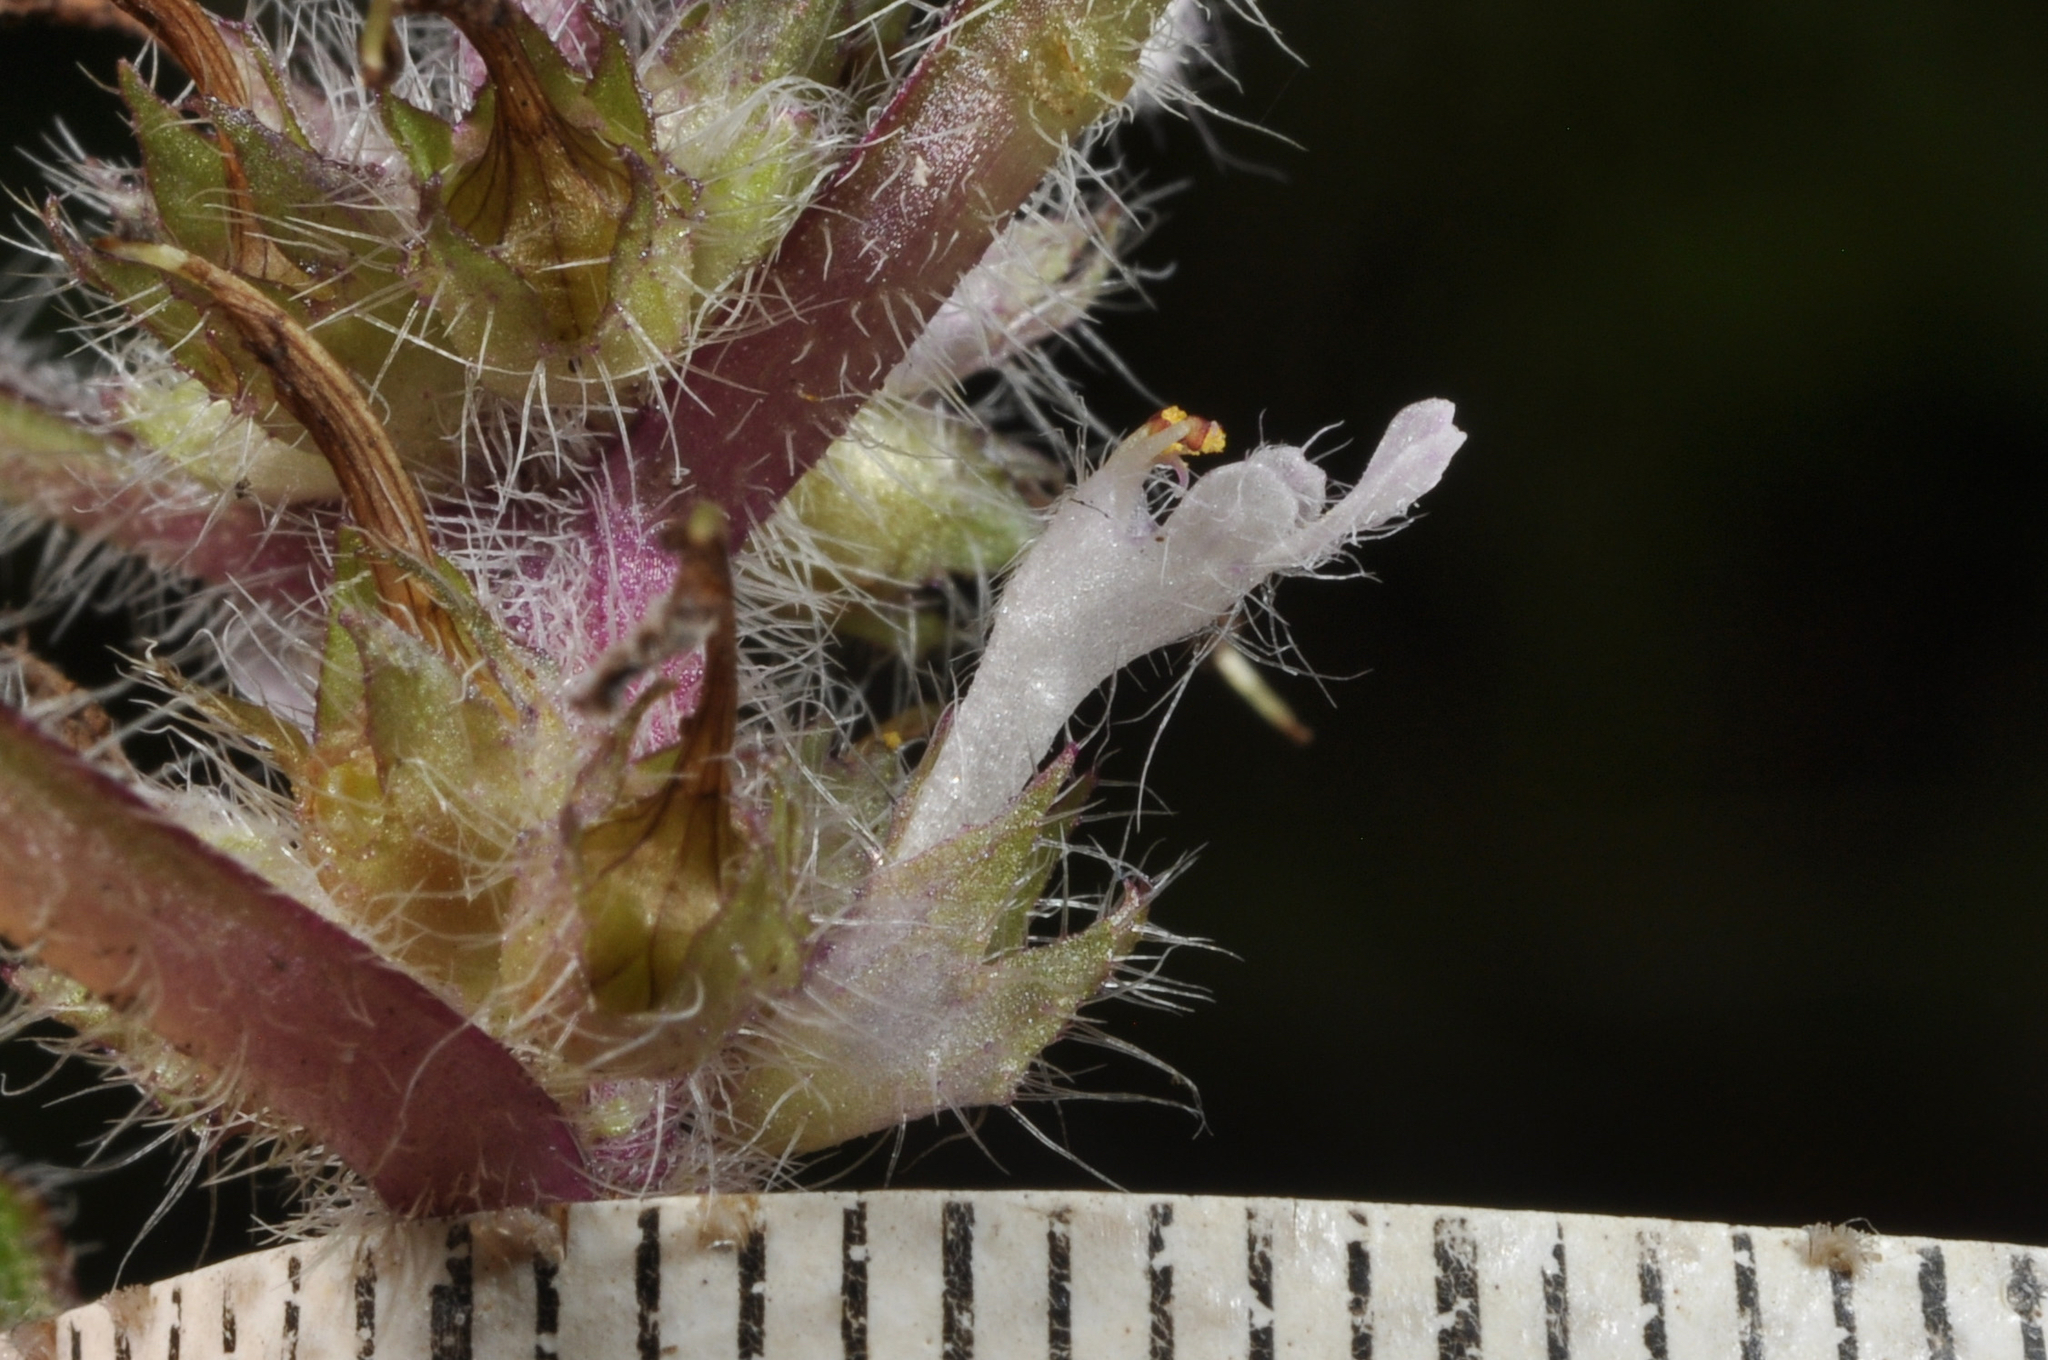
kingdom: Plantae
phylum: Tracheophyta
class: Magnoliopsida
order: Lamiales
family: Lamiaceae
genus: Ajuga
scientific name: Ajuga taiwanensis
